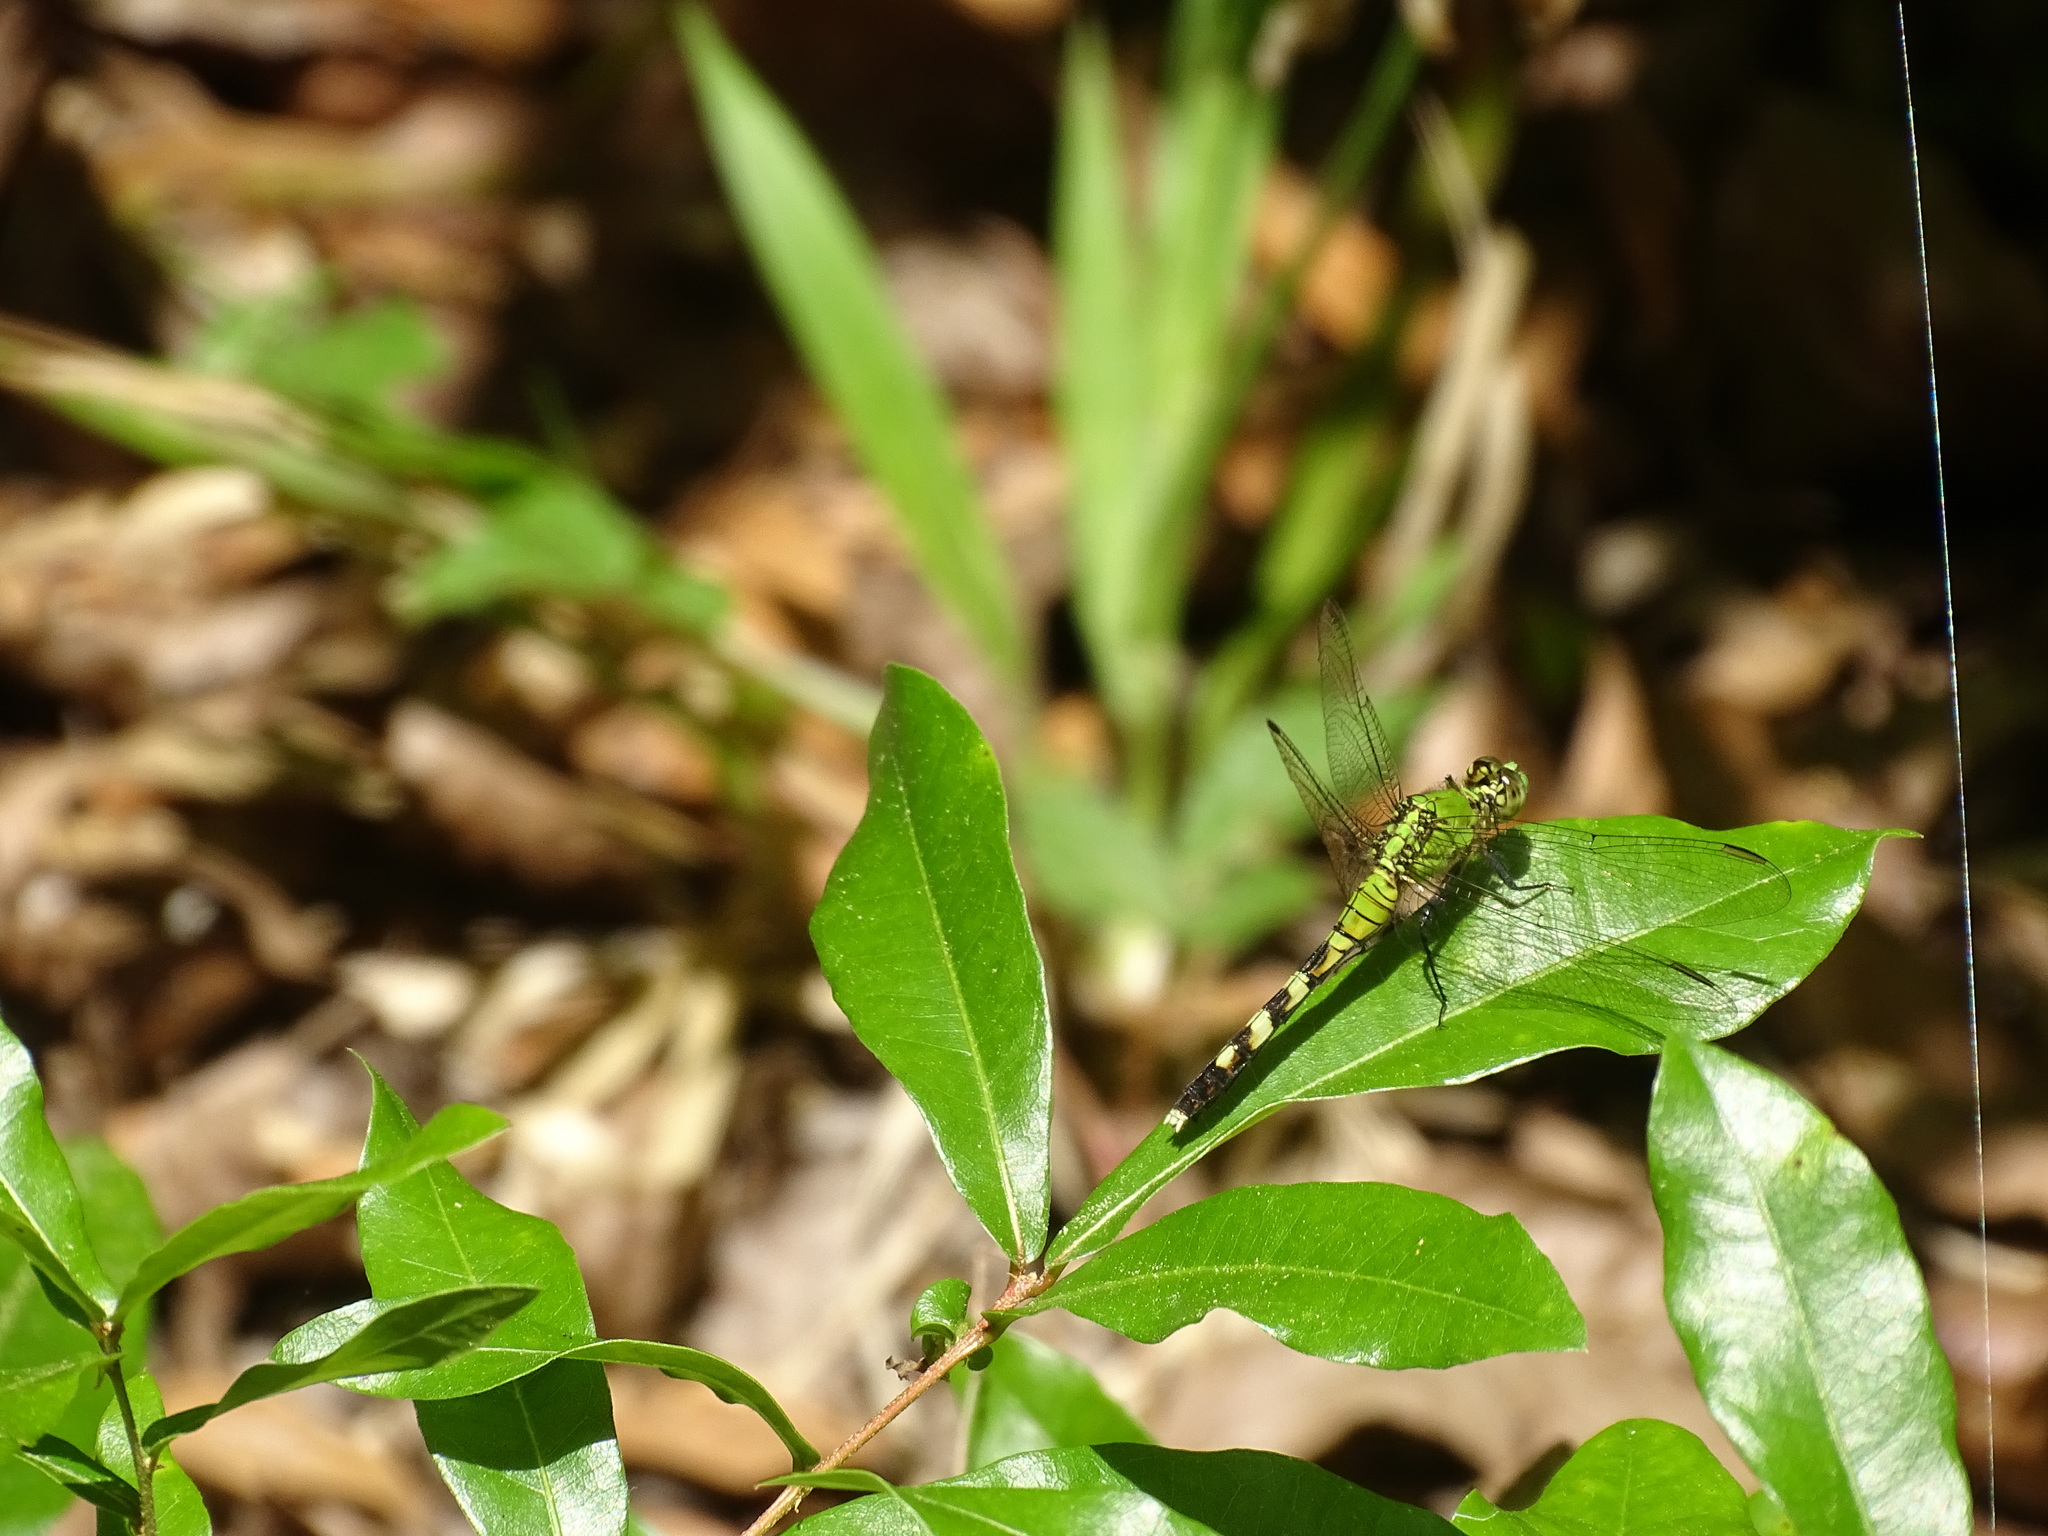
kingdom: Animalia
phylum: Arthropoda
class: Insecta
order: Odonata
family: Libellulidae
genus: Erythemis
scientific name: Erythemis simplicicollis
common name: Eastern pondhawk
